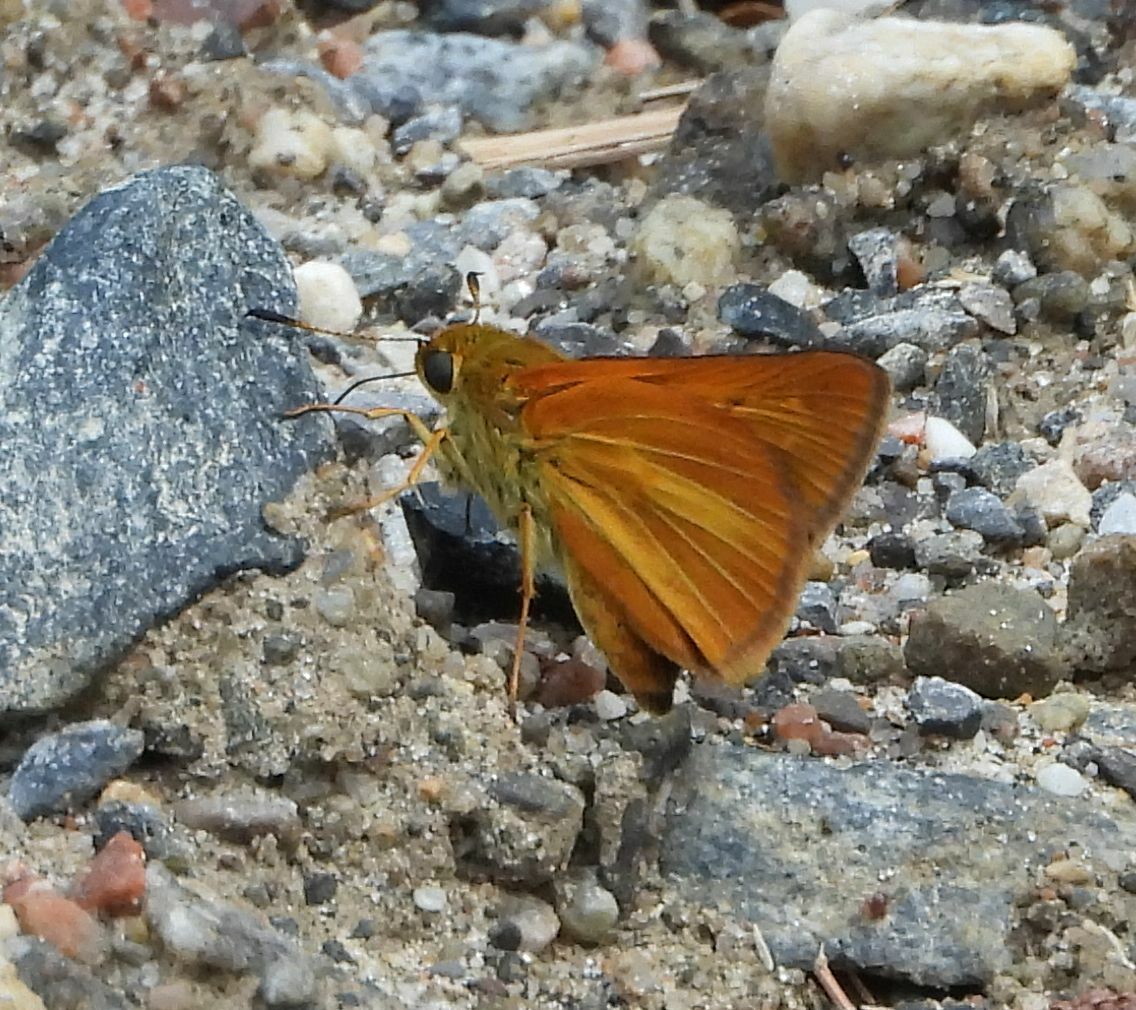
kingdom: Animalia
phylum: Arthropoda
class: Insecta
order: Lepidoptera
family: Hesperiidae
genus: Euphyes
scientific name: Euphyes dion
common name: Dion skipper
